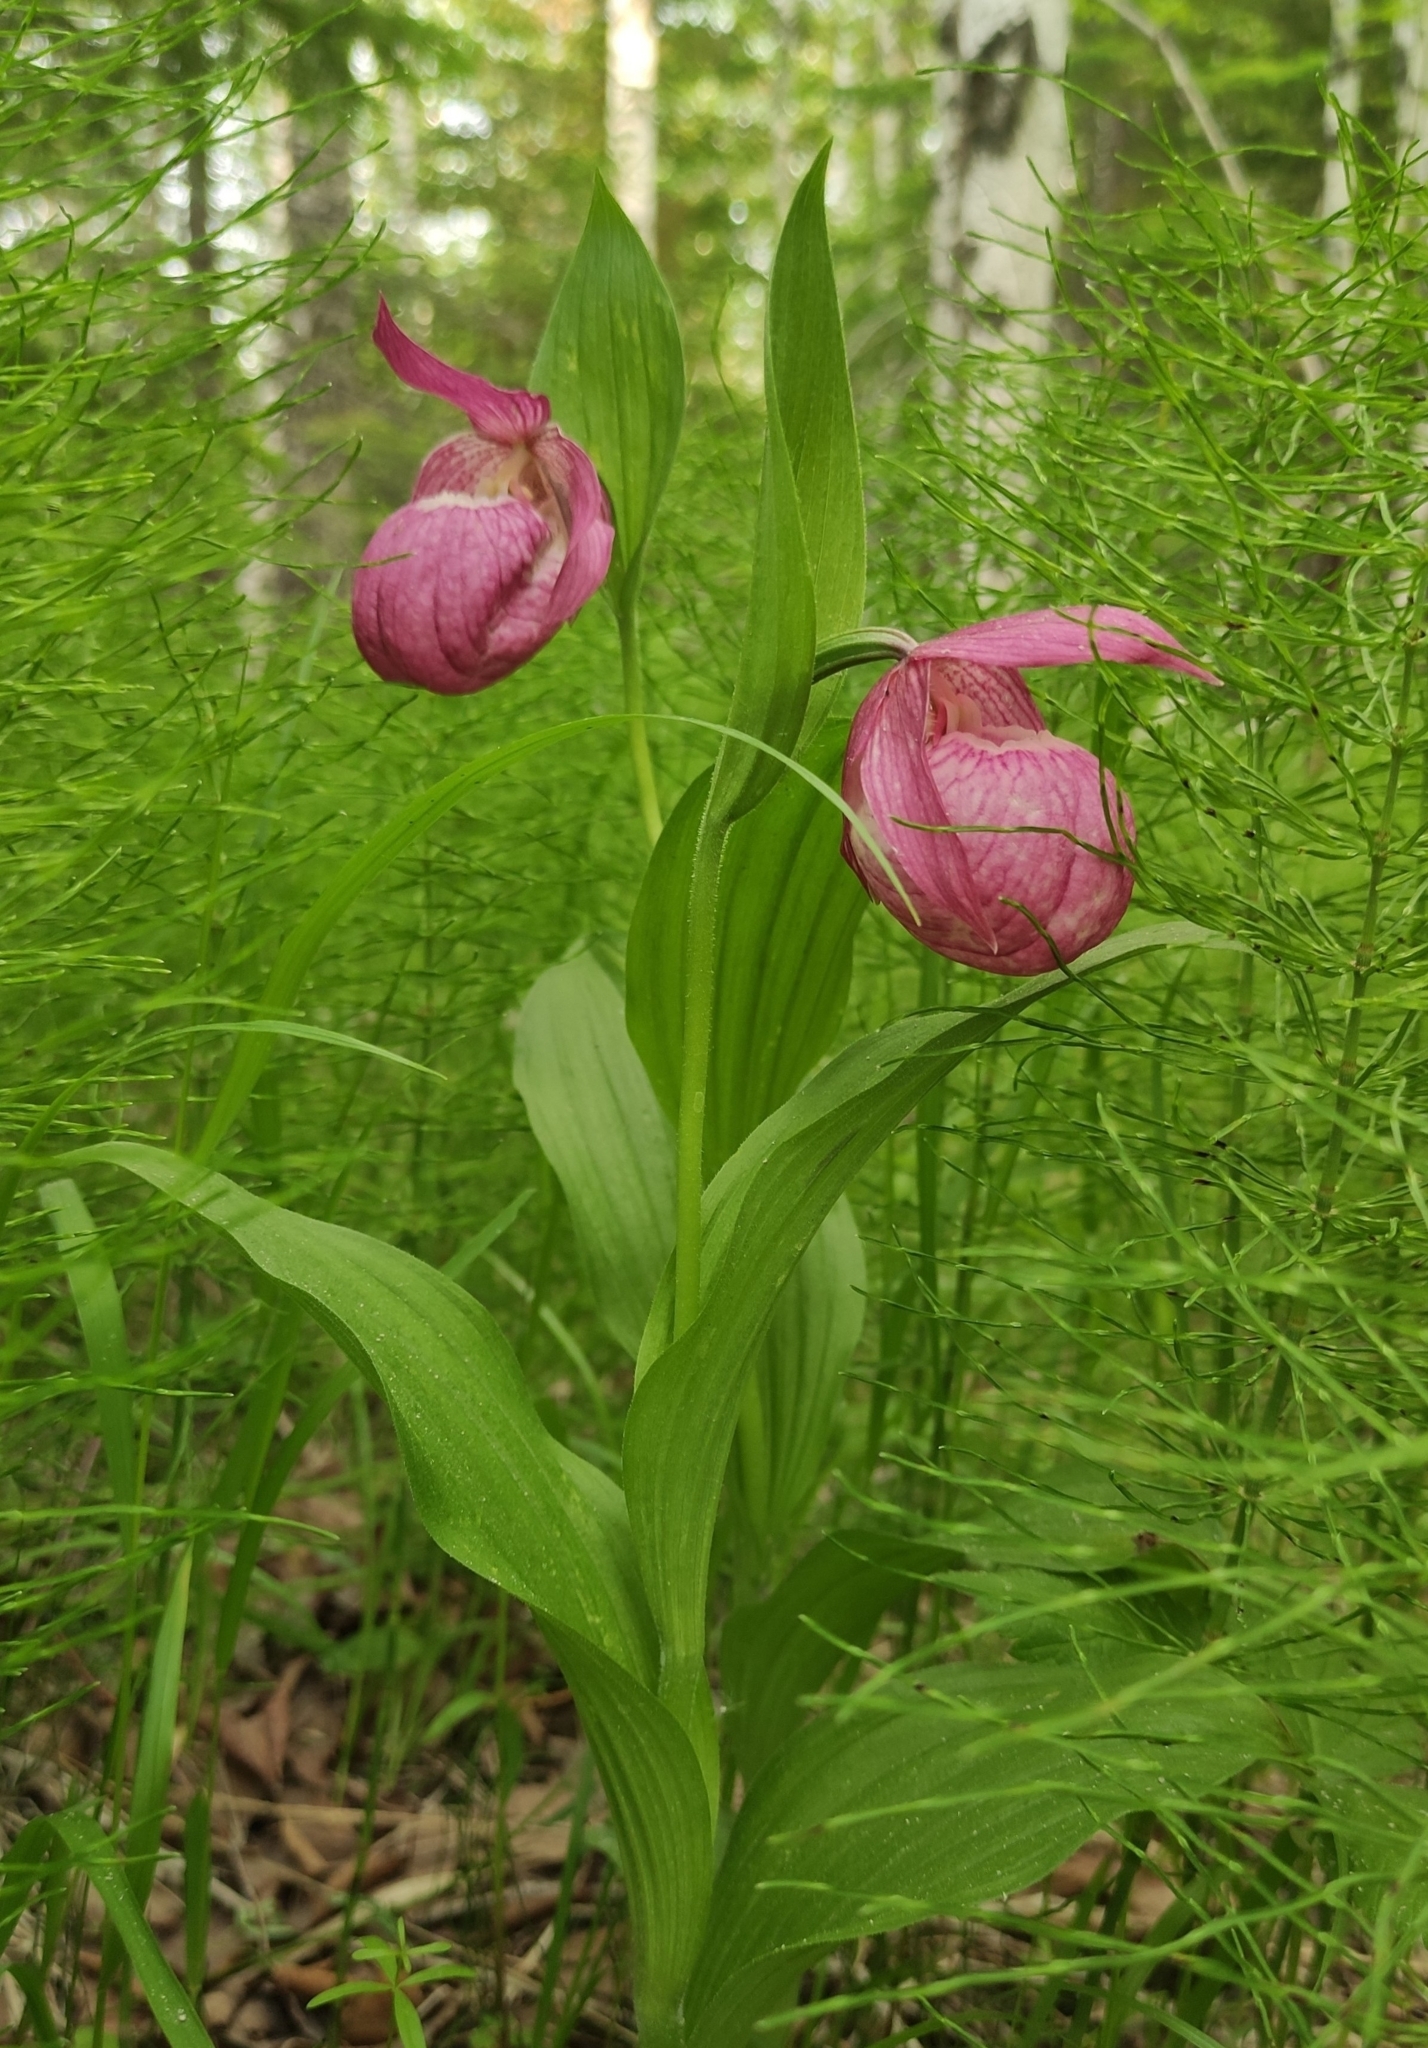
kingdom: Plantae
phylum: Tracheophyta
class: Liliopsida
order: Asparagales
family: Orchidaceae
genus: Cypripedium
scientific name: Cypripedium macranthos
